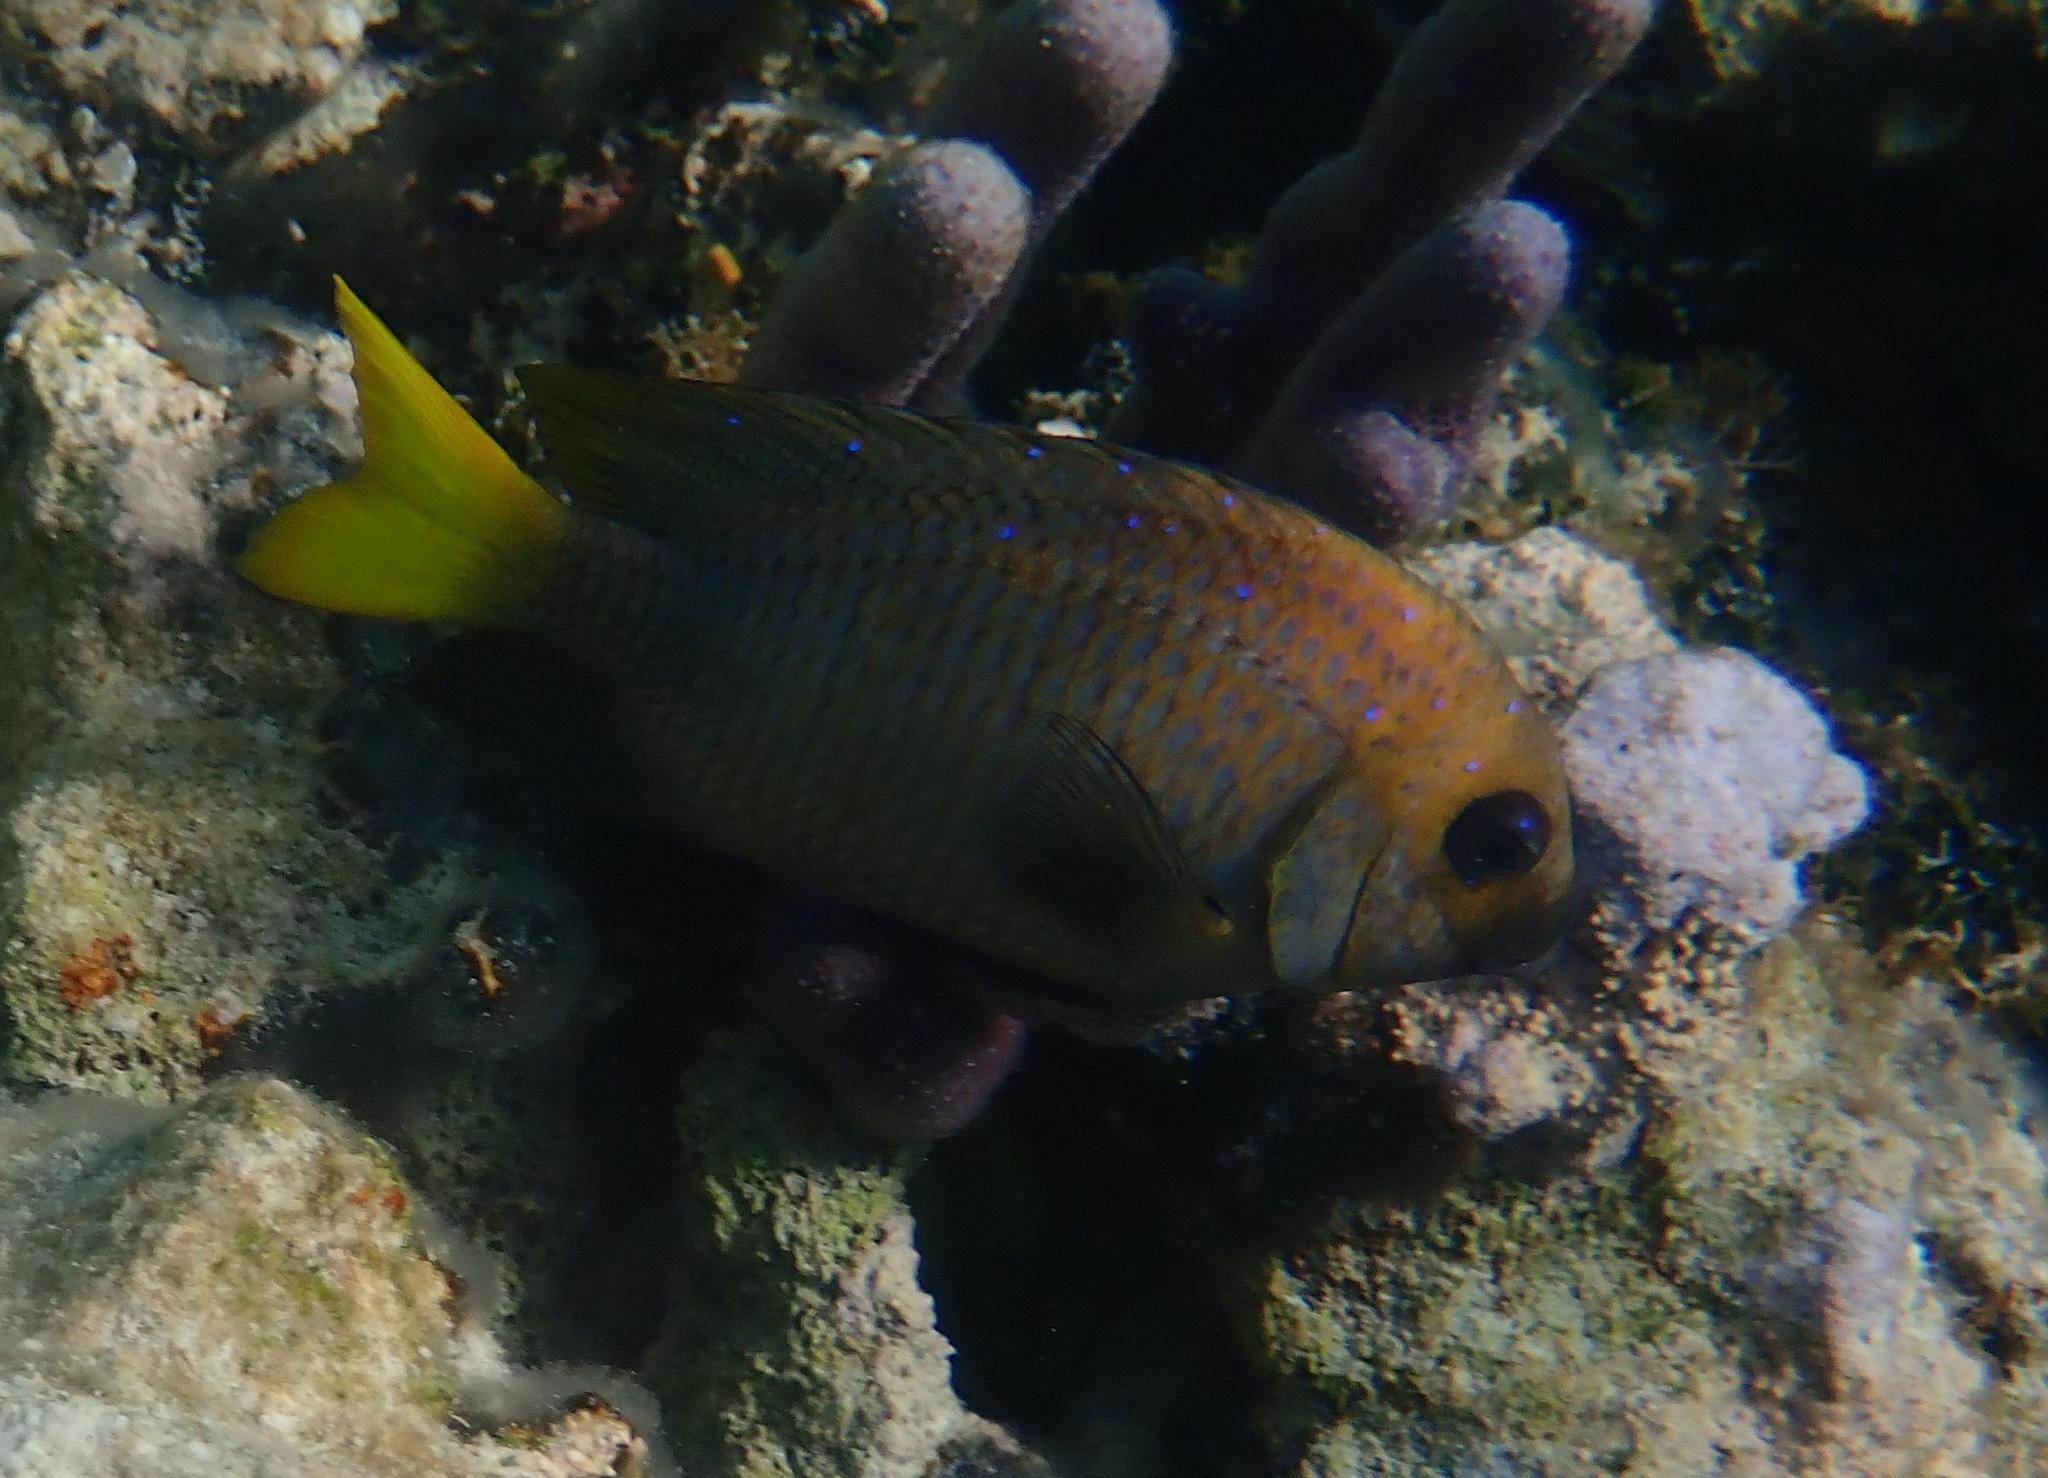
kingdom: Animalia
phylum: Chordata
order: Perciformes
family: Pomacentridae
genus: Microspathodon
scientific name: Microspathodon chrysurus
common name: Yellowtail damselfish
